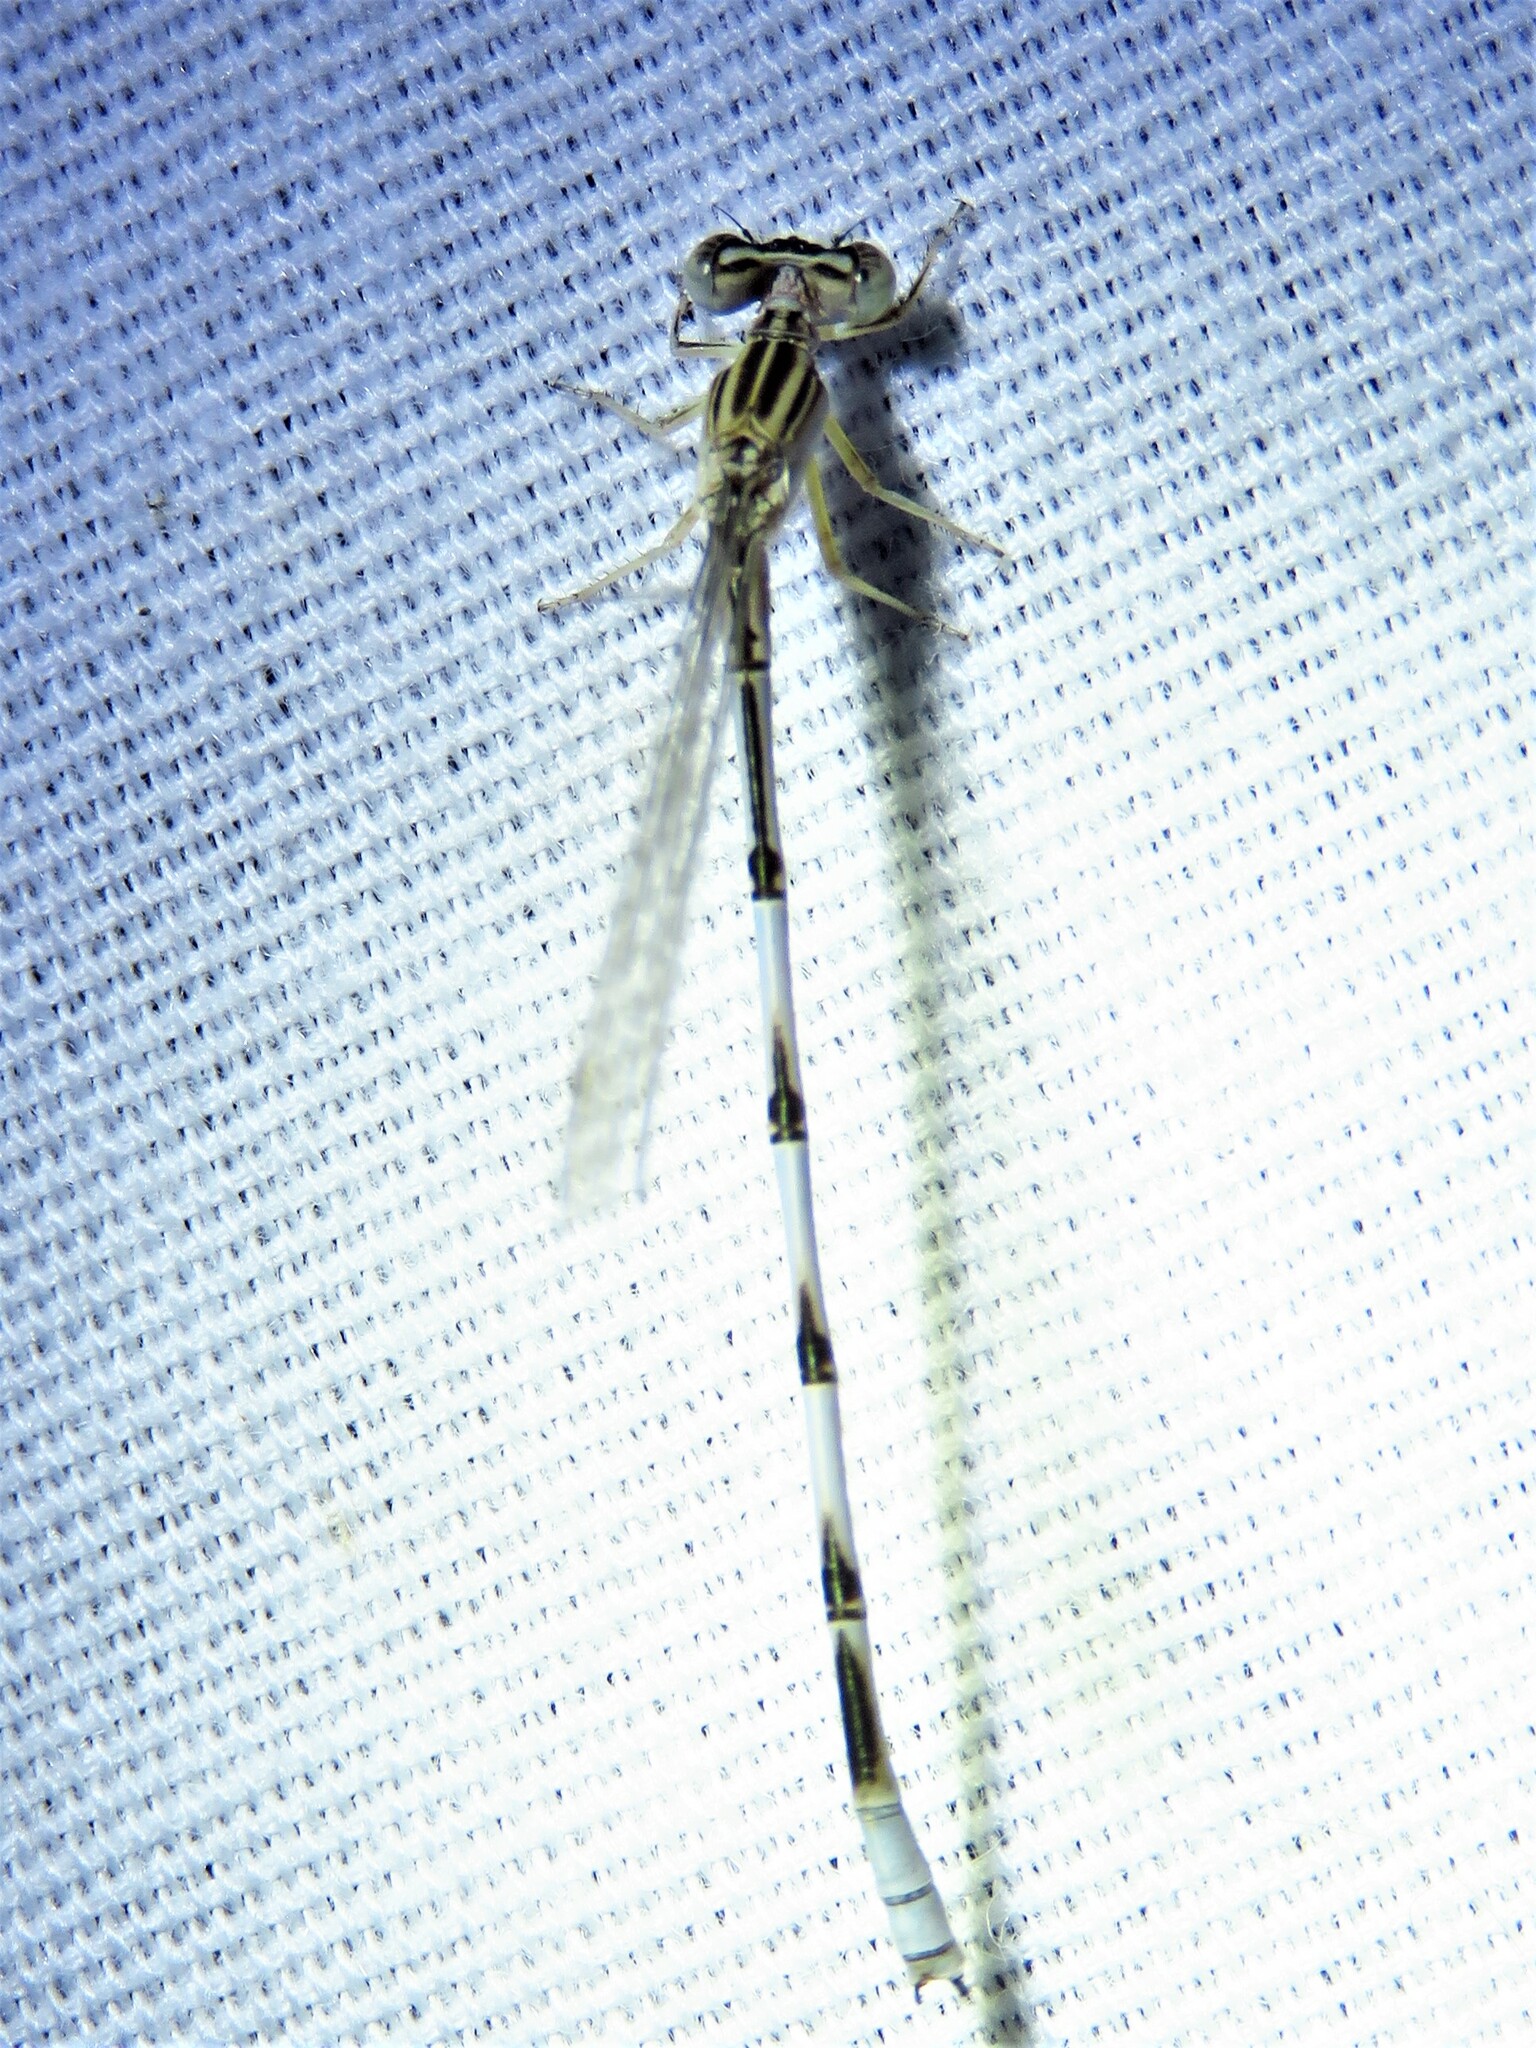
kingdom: Animalia
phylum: Arthropoda
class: Insecta
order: Odonata
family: Coenagrionidae
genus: Enallagma
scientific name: Enallagma basidens
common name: Double-striped bluet
